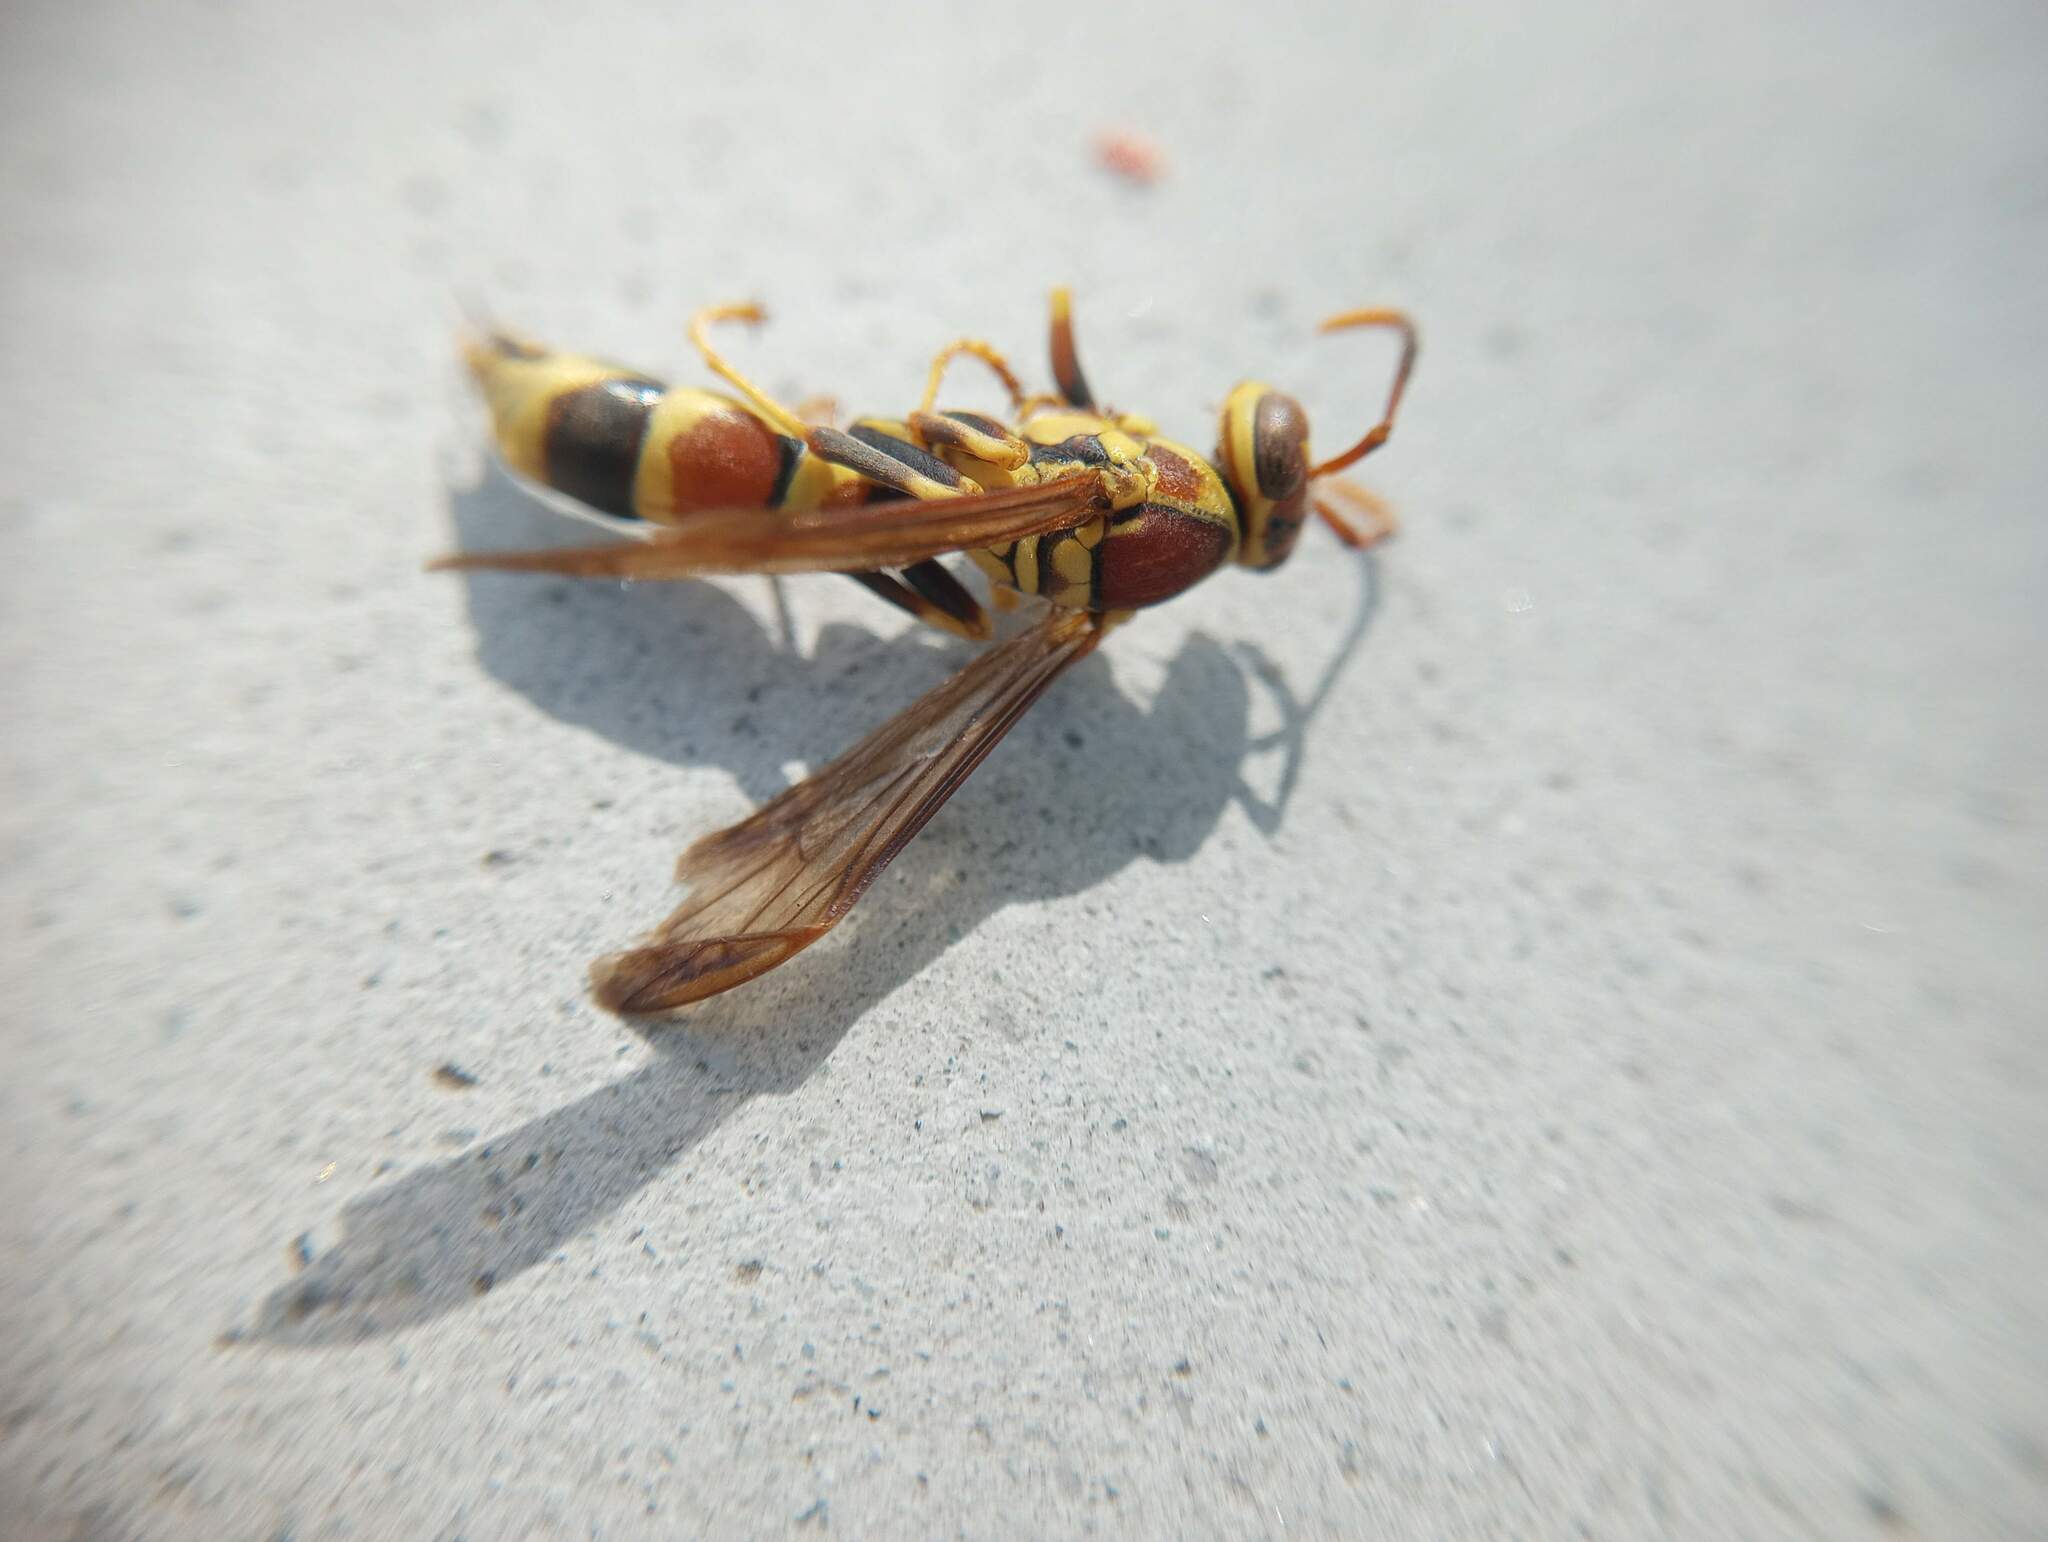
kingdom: Animalia
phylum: Arthropoda
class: Insecta
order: Hymenoptera
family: Eumenidae
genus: Polistes
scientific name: Polistes exclamans
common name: Paper wasp
